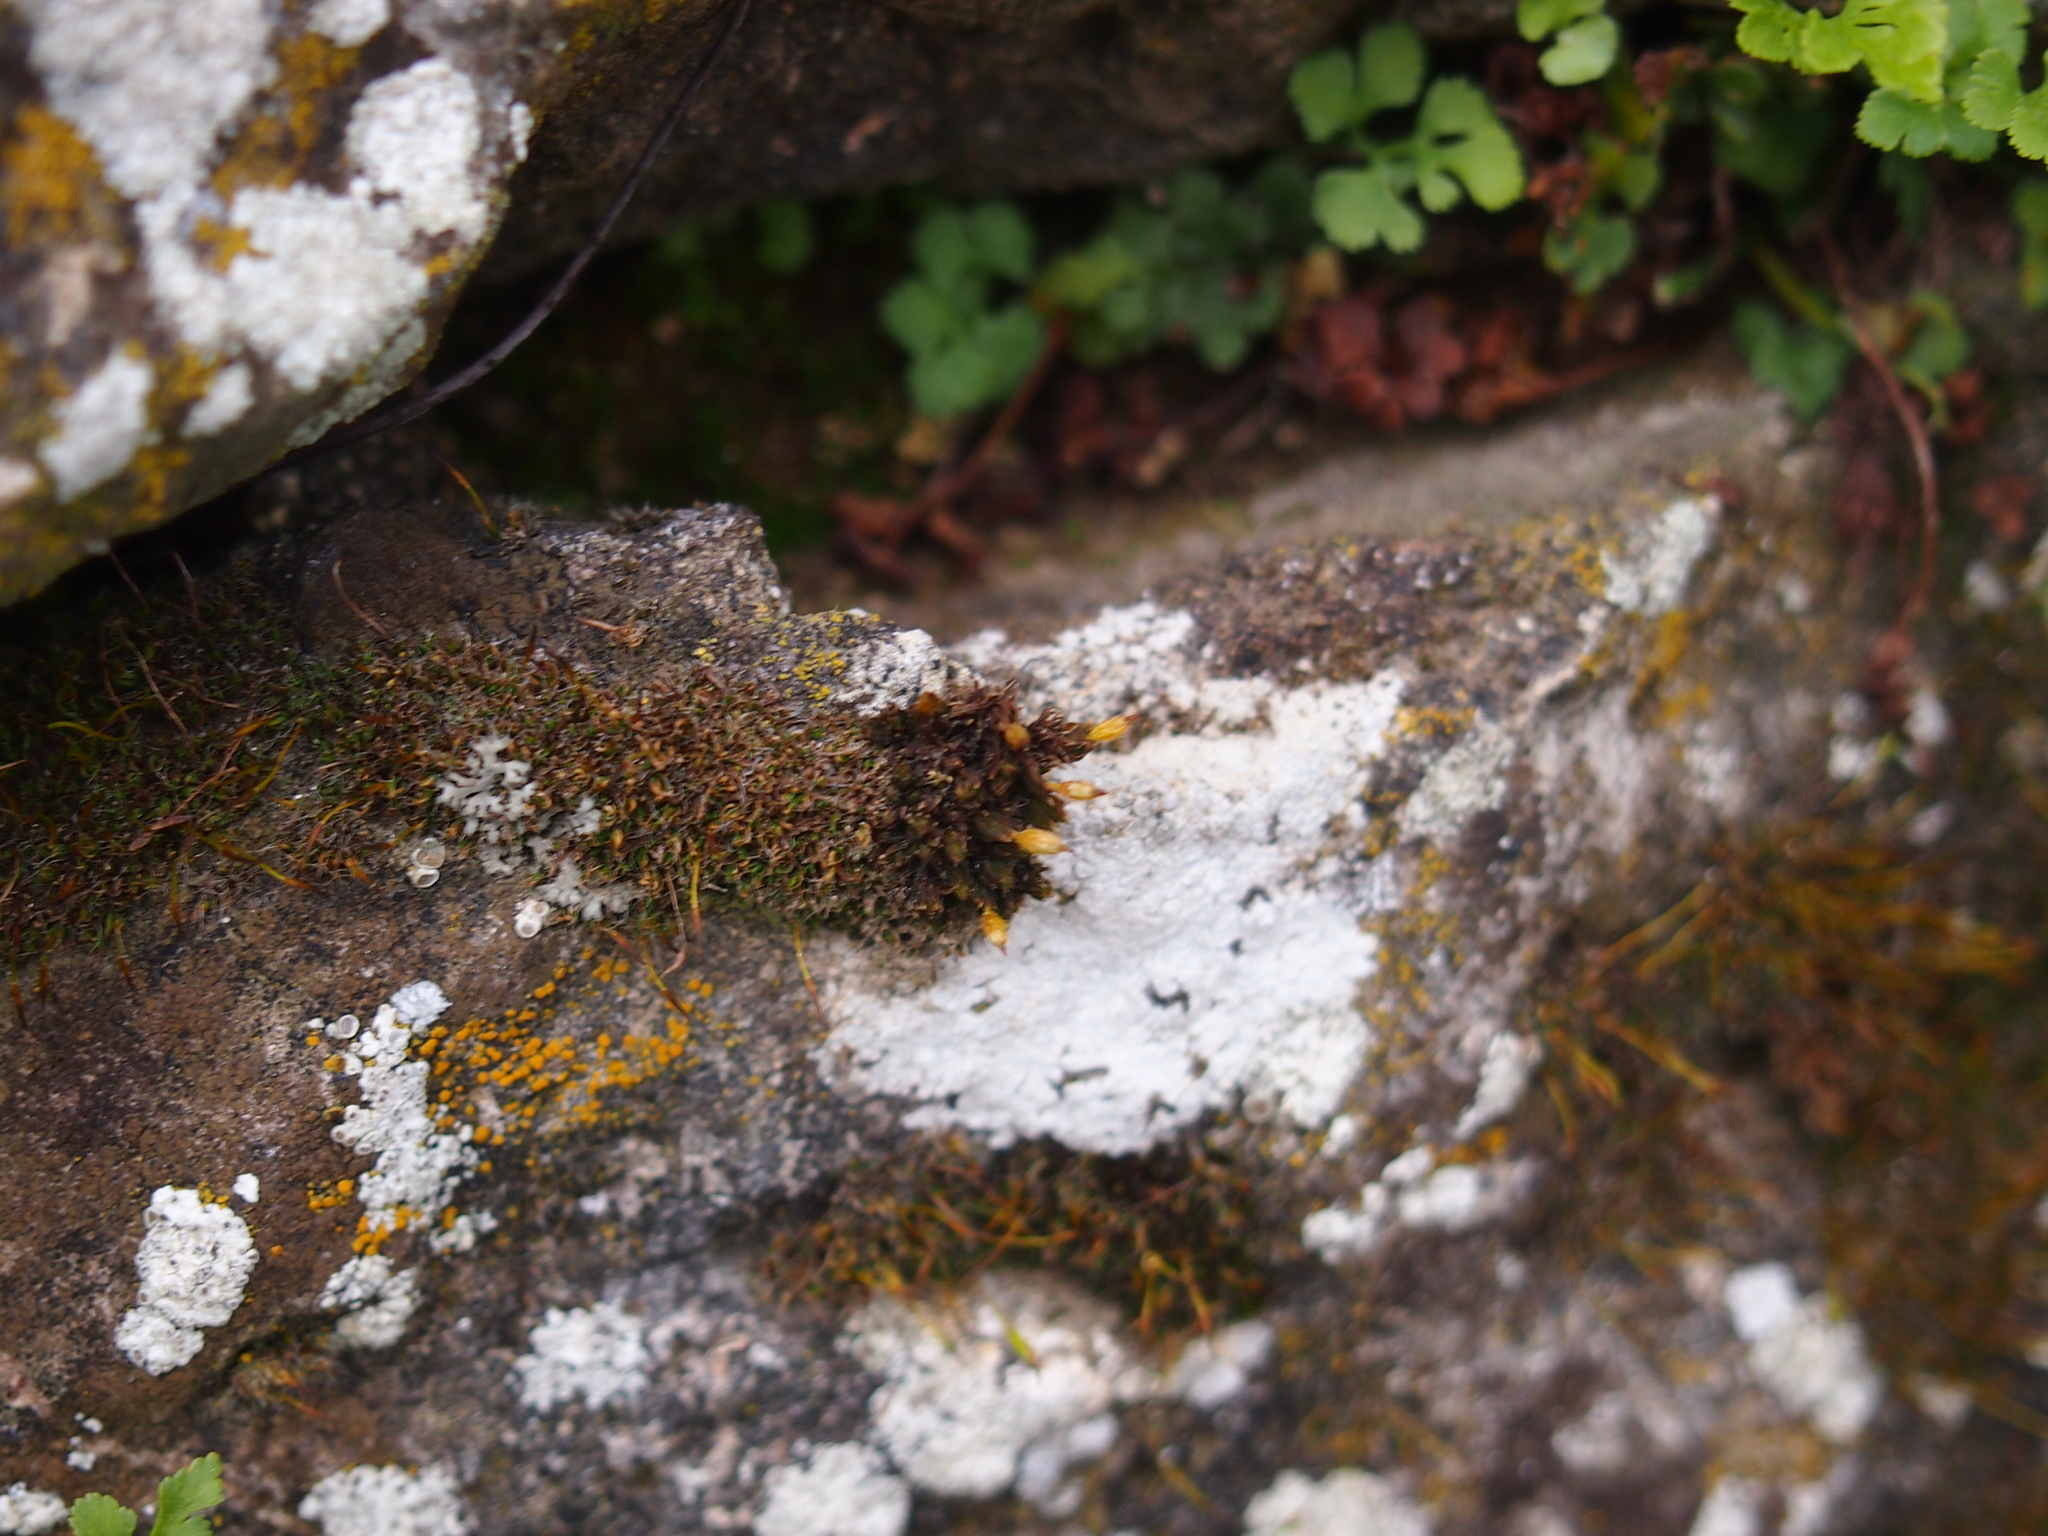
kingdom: Plantae
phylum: Bryophyta
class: Bryopsida
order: Orthotrichales
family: Orthotrichaceae
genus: Orthotrichum
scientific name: Orthotrichum anomalum
